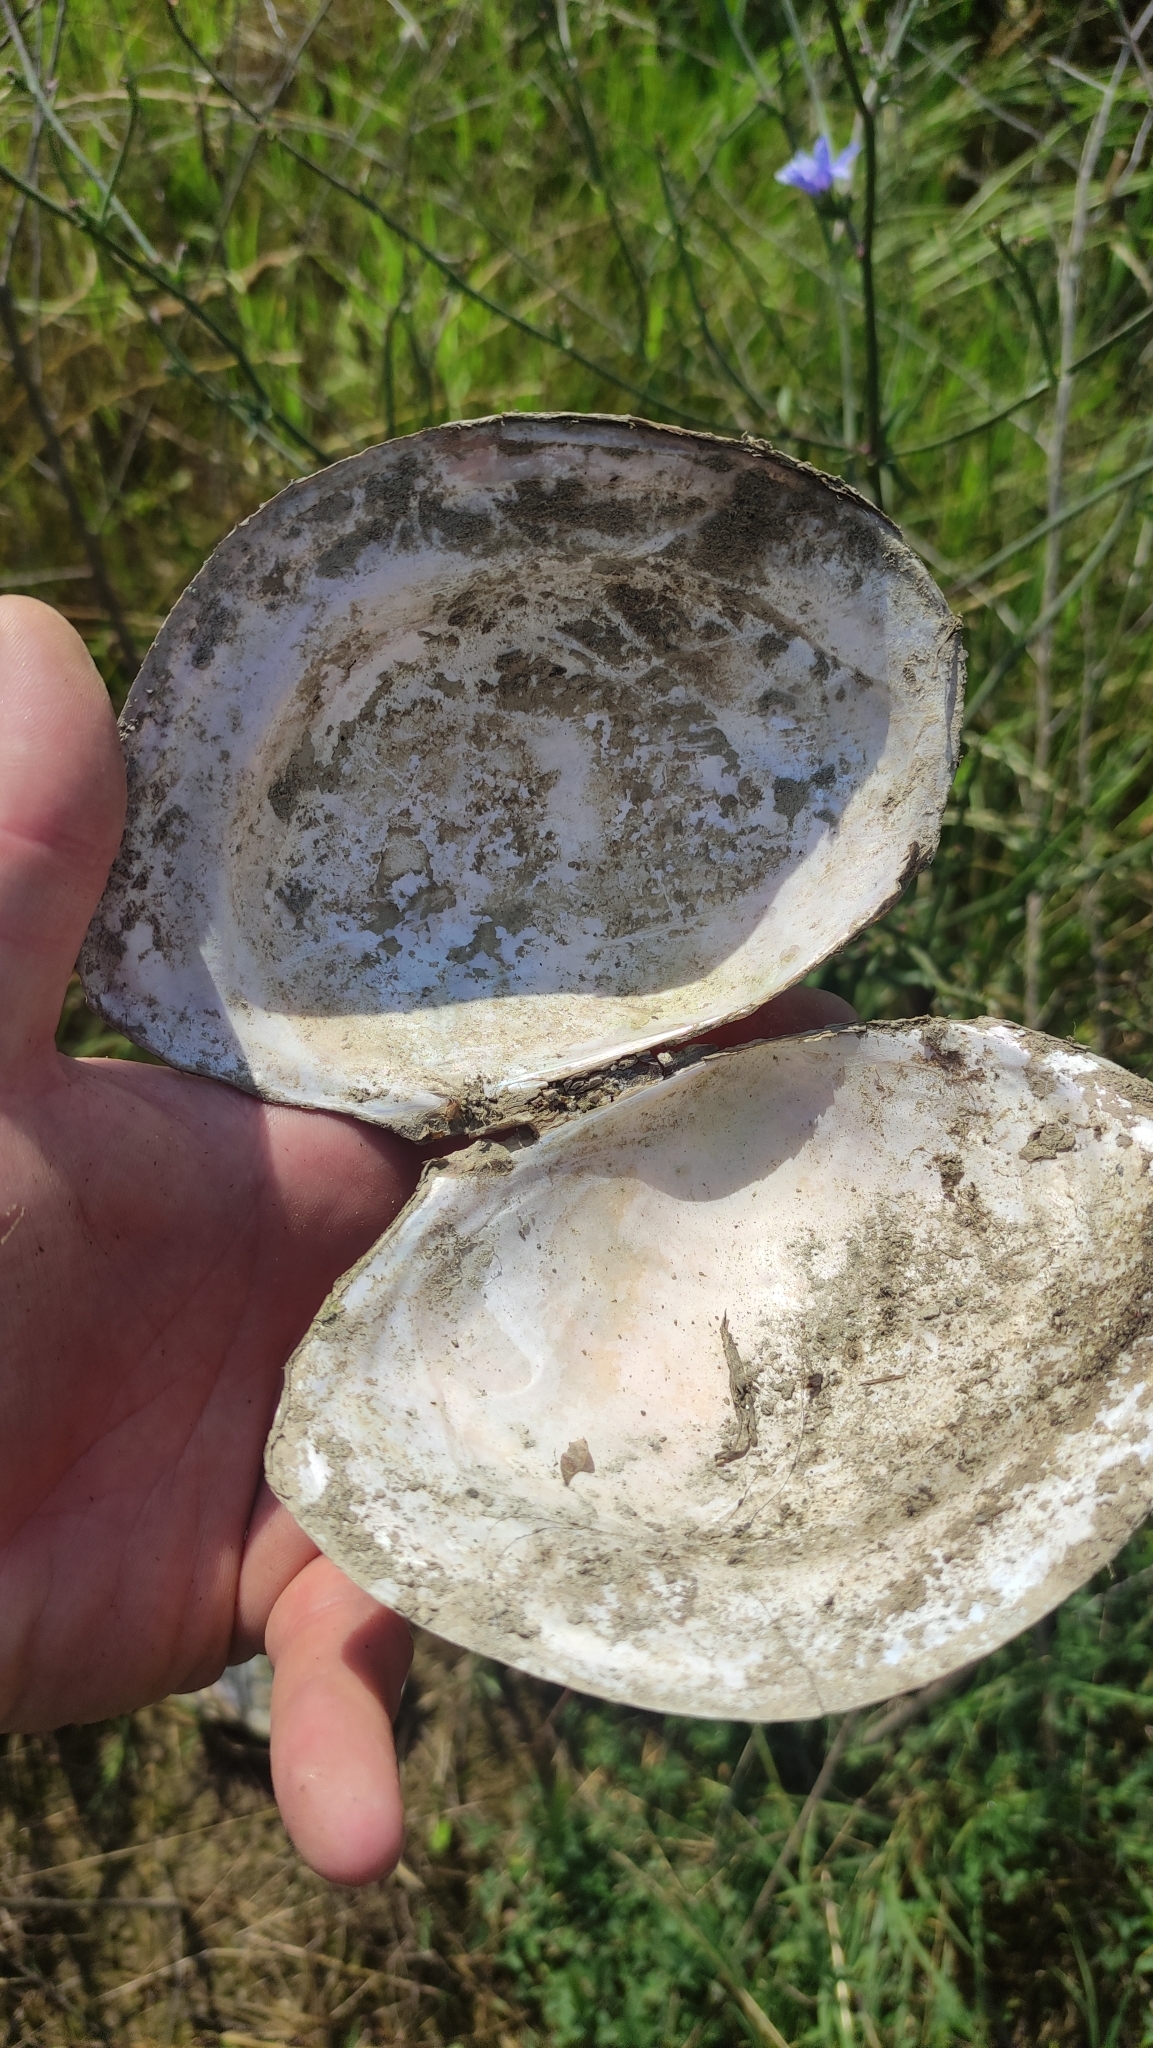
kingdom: Animalia
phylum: Mollusca
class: Bivalvia
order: Unionida
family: Unionidae
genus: Sinanodonta
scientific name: Sinanodonta woodiana
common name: Chinese pond mussel
